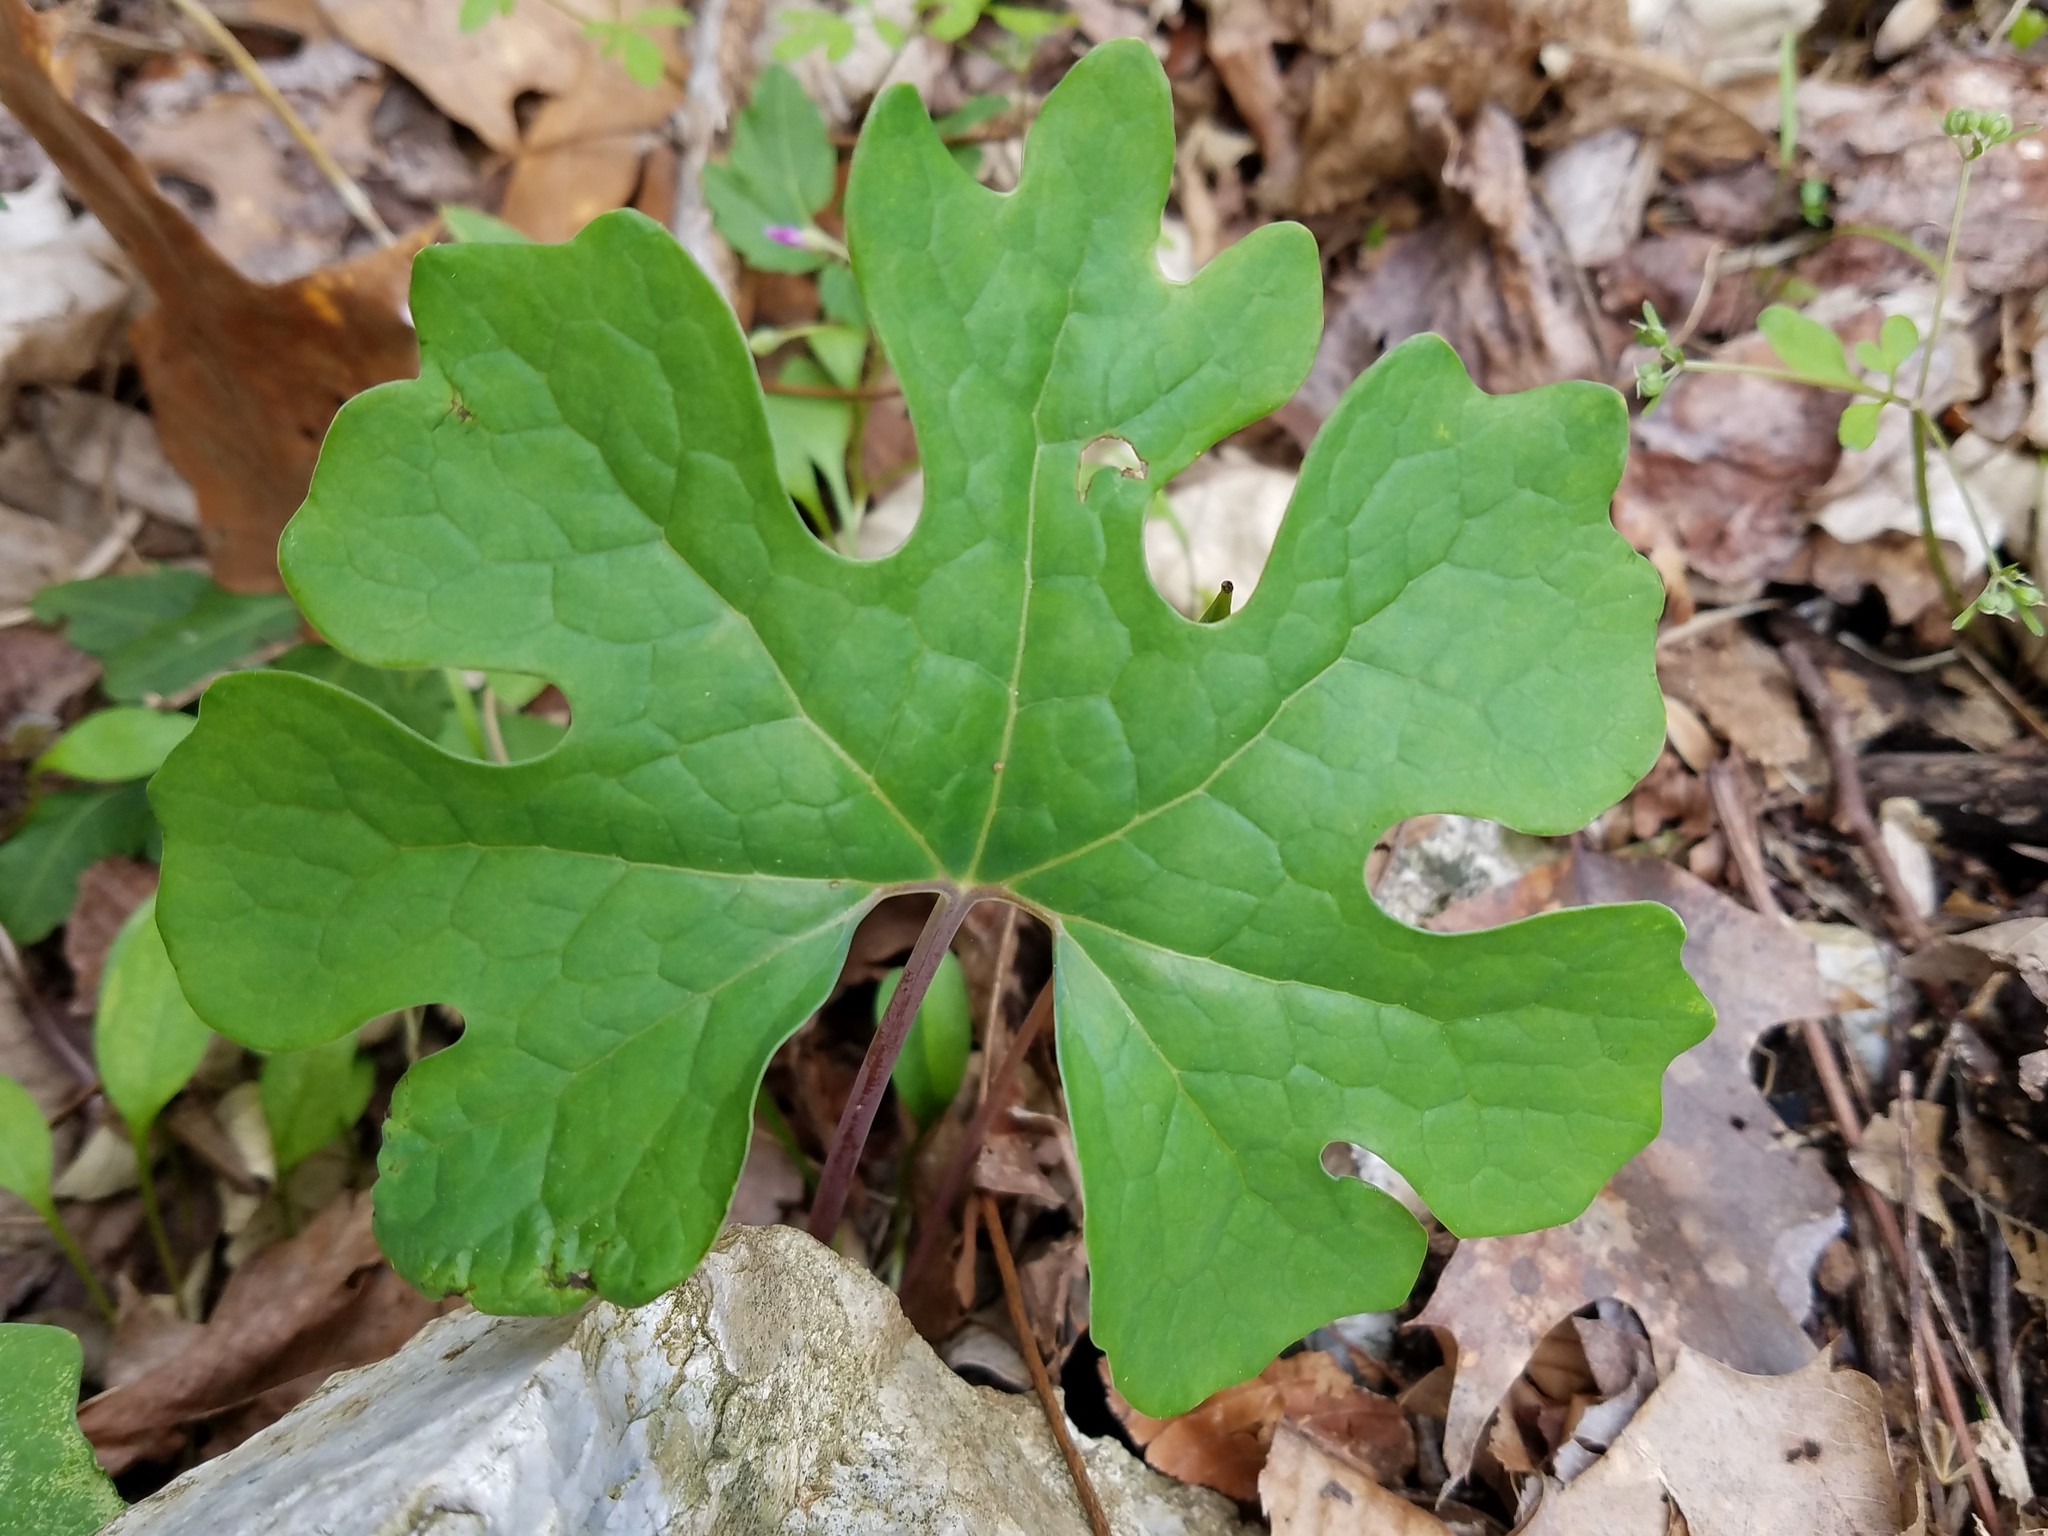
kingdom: Plantae
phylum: Tracheophyta
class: Magnoliopsida
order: Ranunculales
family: Papaveraceae
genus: Sanguinaria
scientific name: Sanguinaria canadensis
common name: Bloodroot
